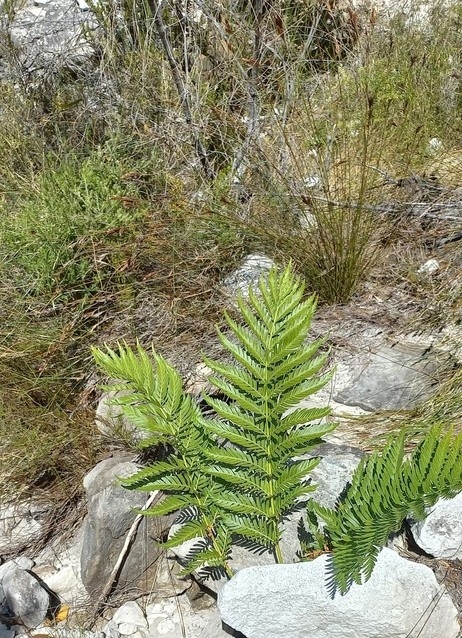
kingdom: Plantae
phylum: Tracheophyta
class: Polypodiopsida
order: Osmundales
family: Osmundaceae
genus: Todea
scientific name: Todea barbara
